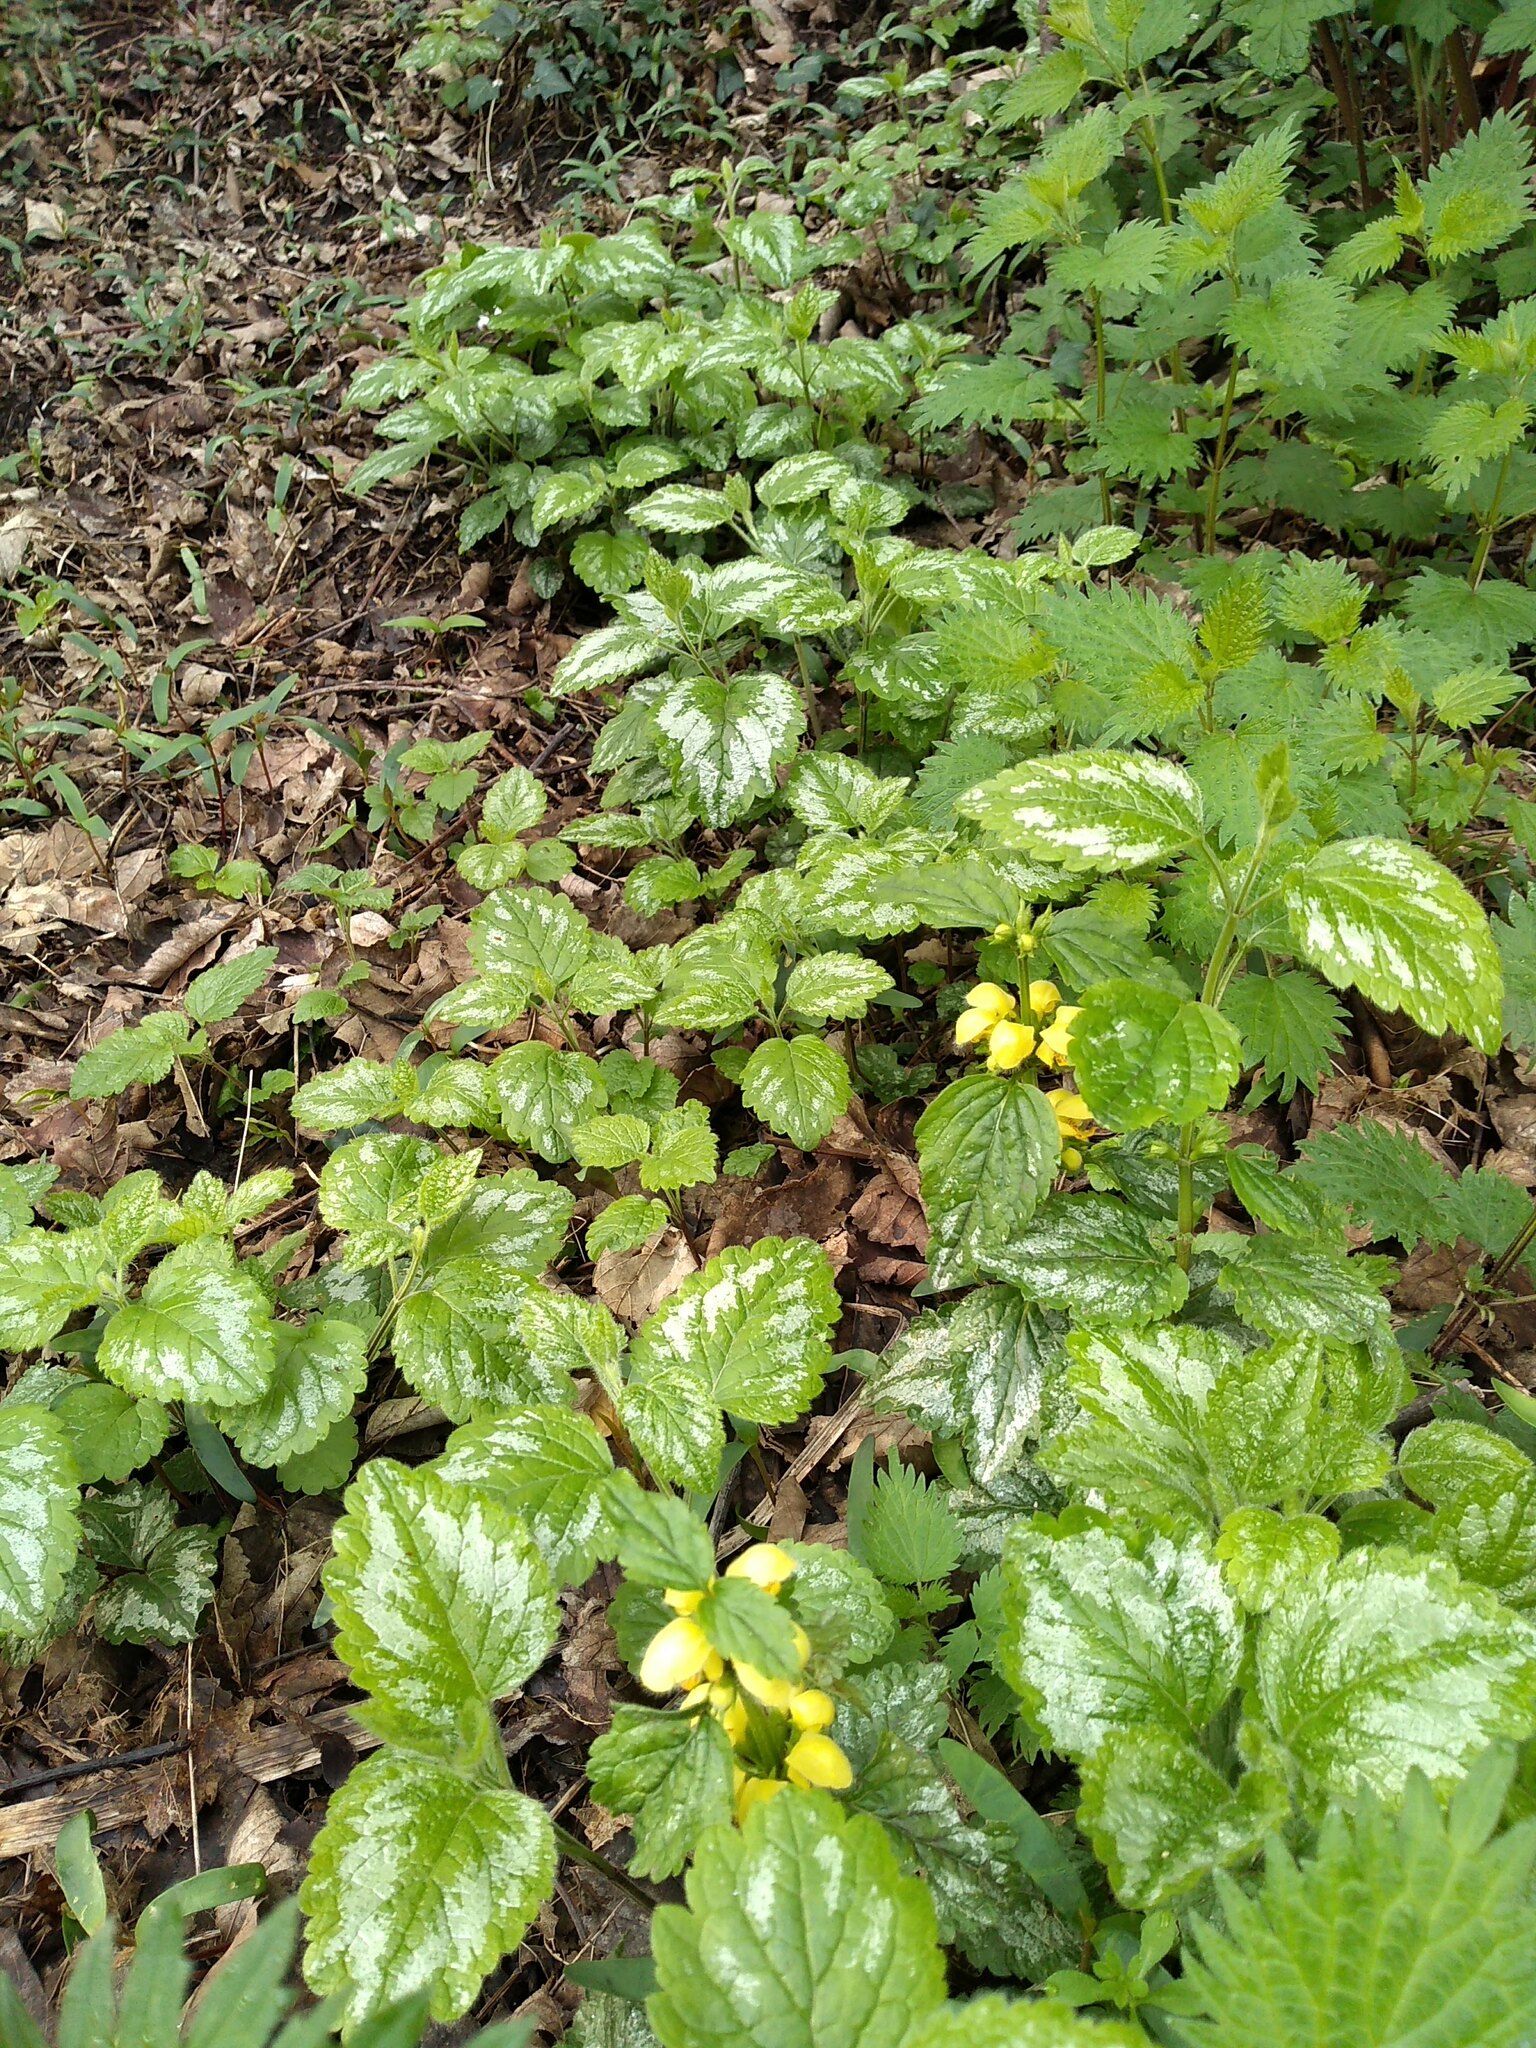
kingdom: Plantae
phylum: Tracheophyta
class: Magnoliopsida
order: Lamiales
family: Lamiaceae
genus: Lamium
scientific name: Lamium galeobdolon
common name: Yellow archangel
